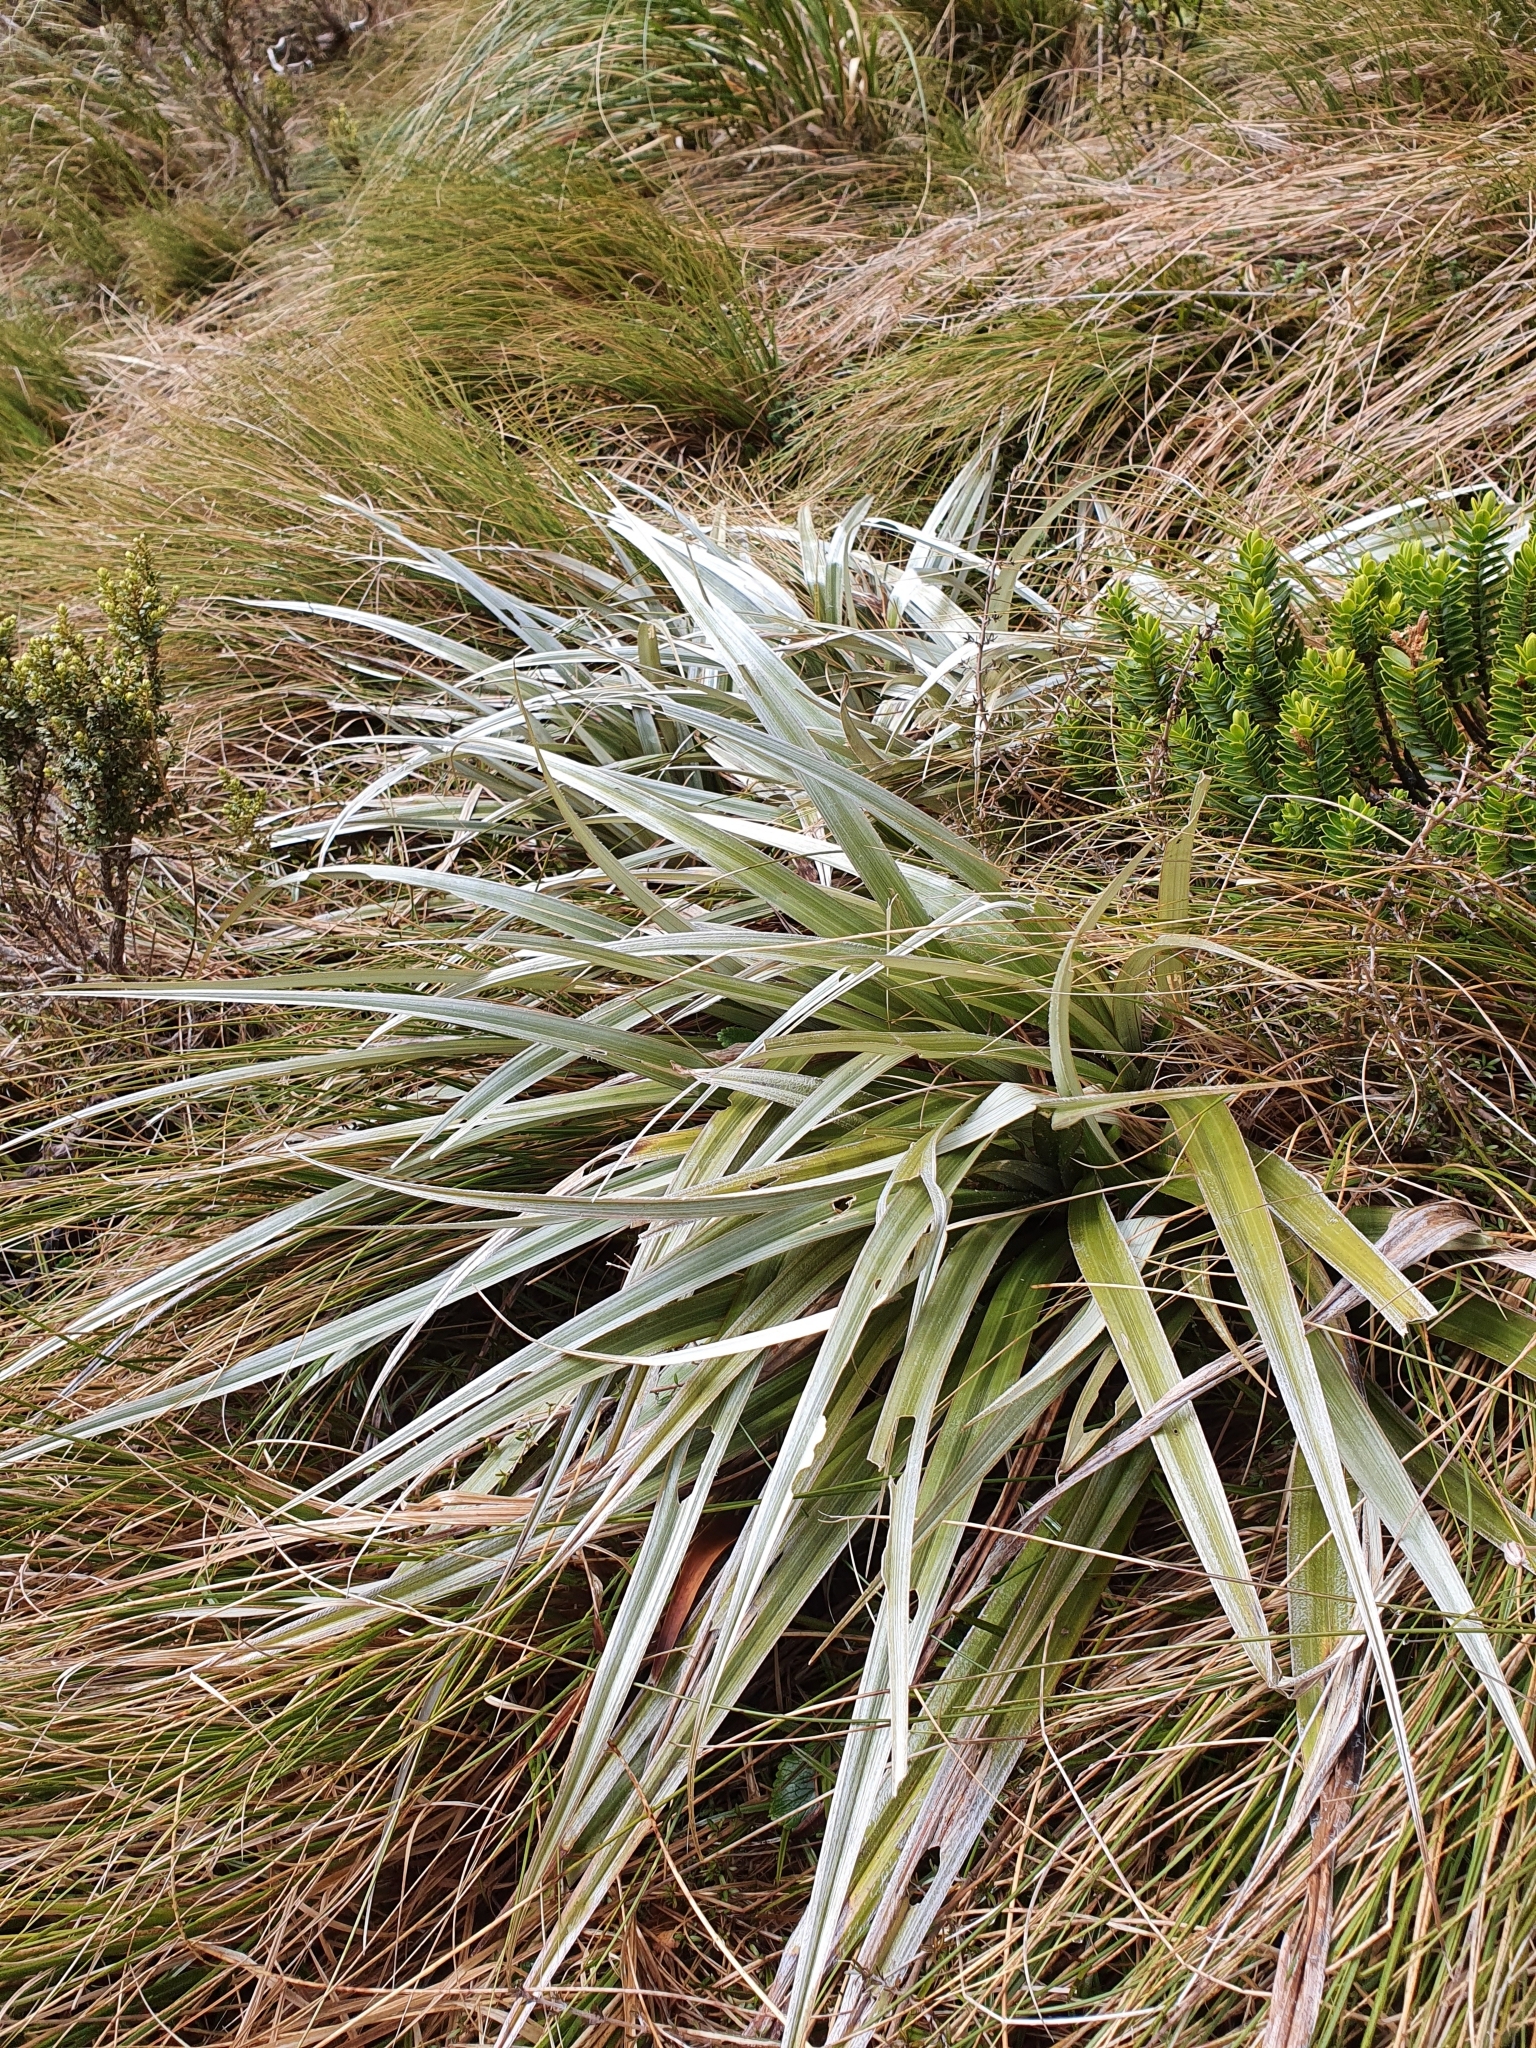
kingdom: Plantae
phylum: Tracheophyta
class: Liliopsida
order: Asparagales
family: Asteliaceae
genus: Astelia
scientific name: Astelia nervosa
